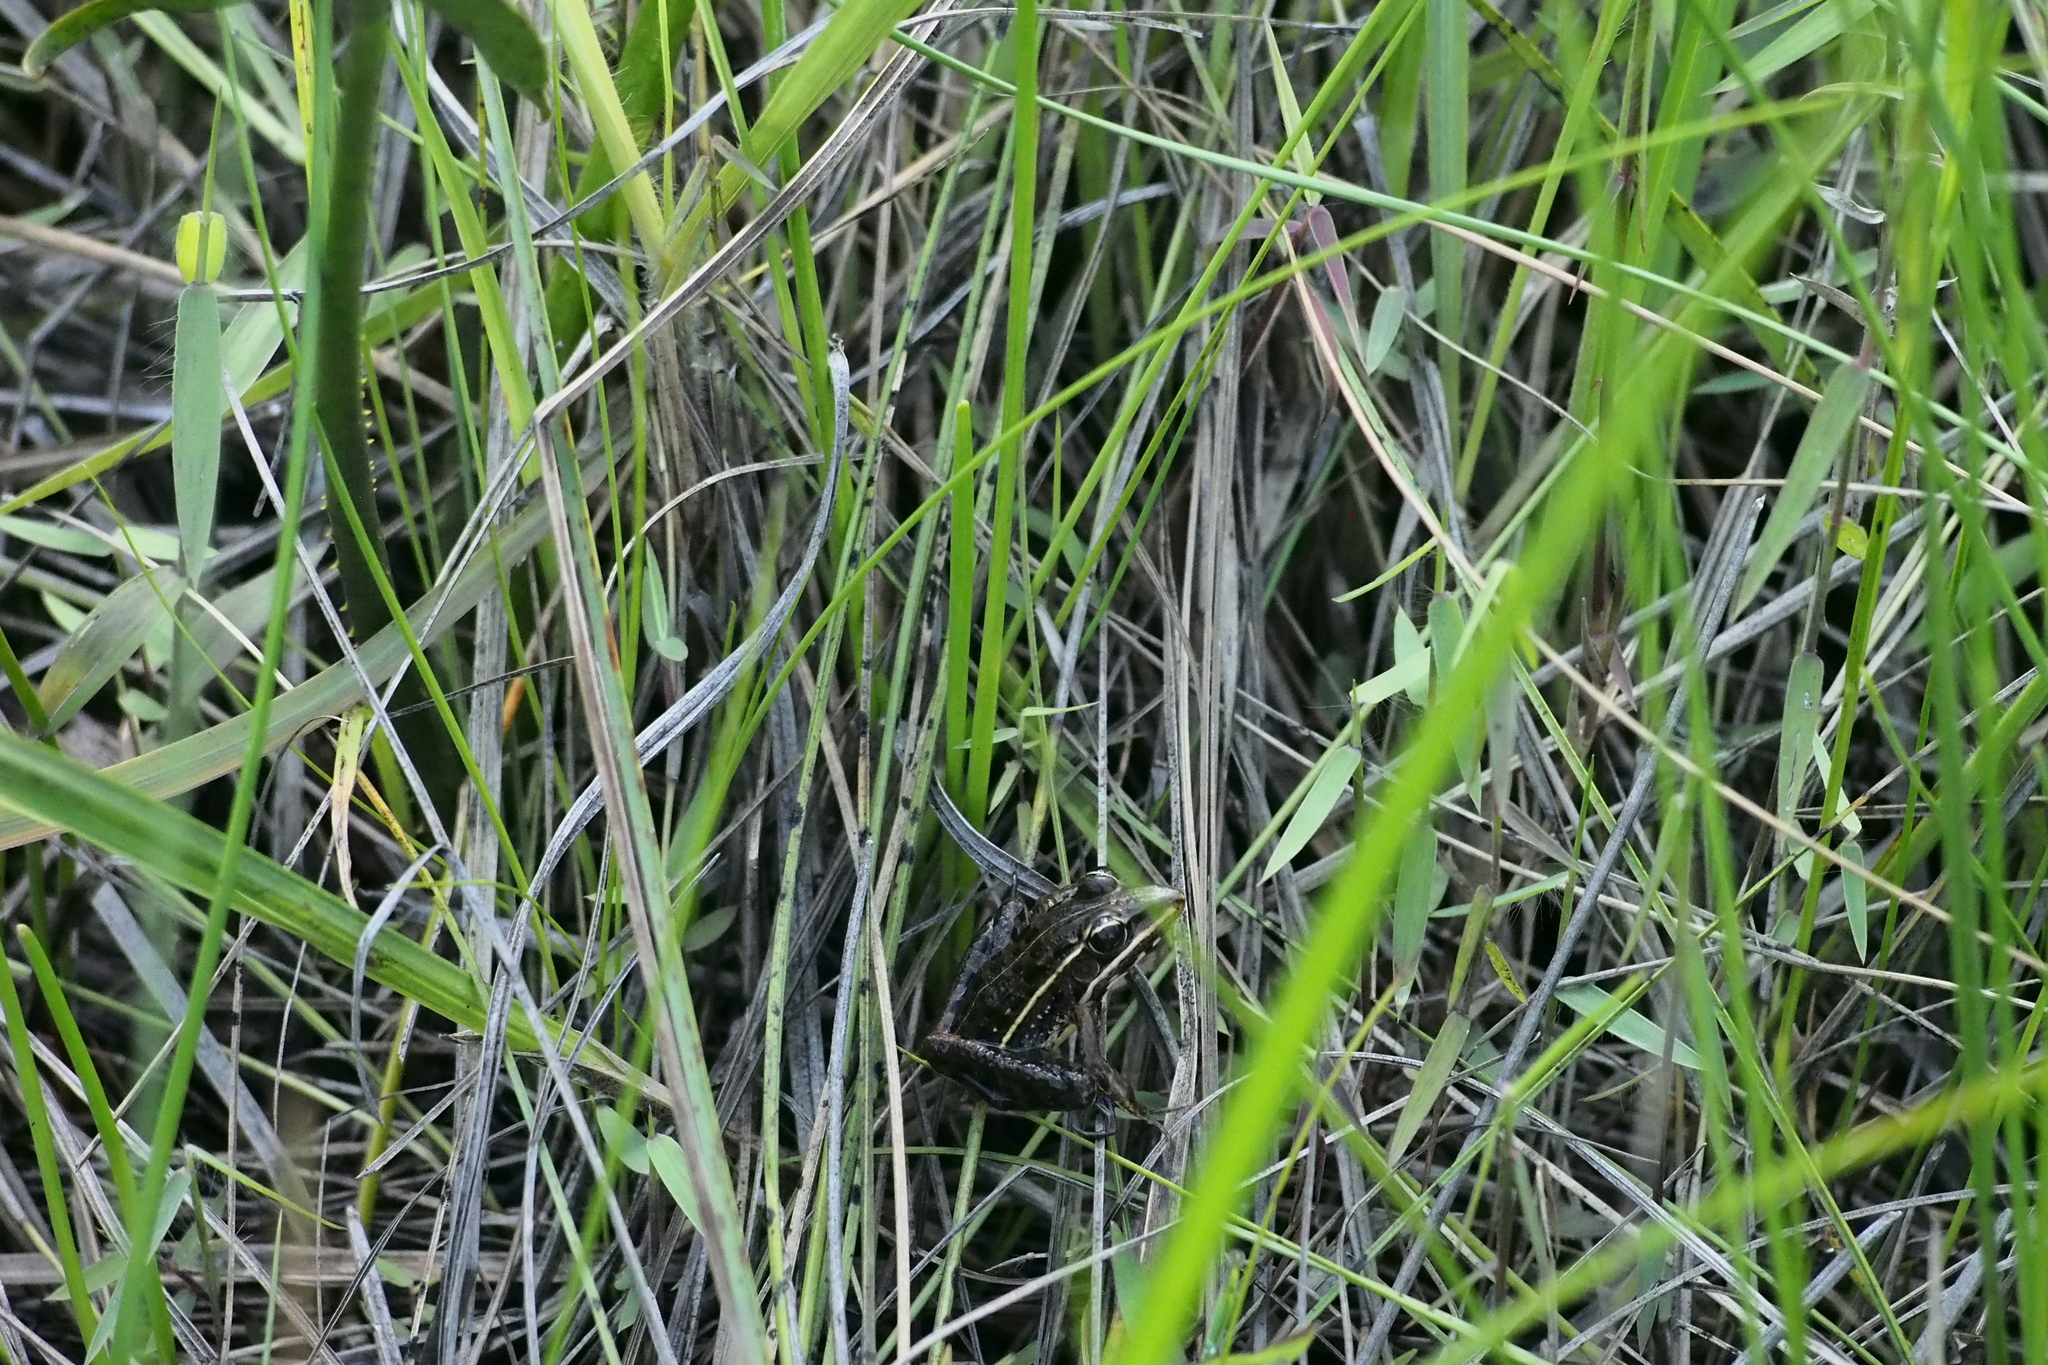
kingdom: Animalia
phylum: Chordata
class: Amphibia
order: Anura
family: Ptychadenidae
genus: Ptychadena
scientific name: Ptychadena pumilio
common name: Spotted-throated ridged frog
